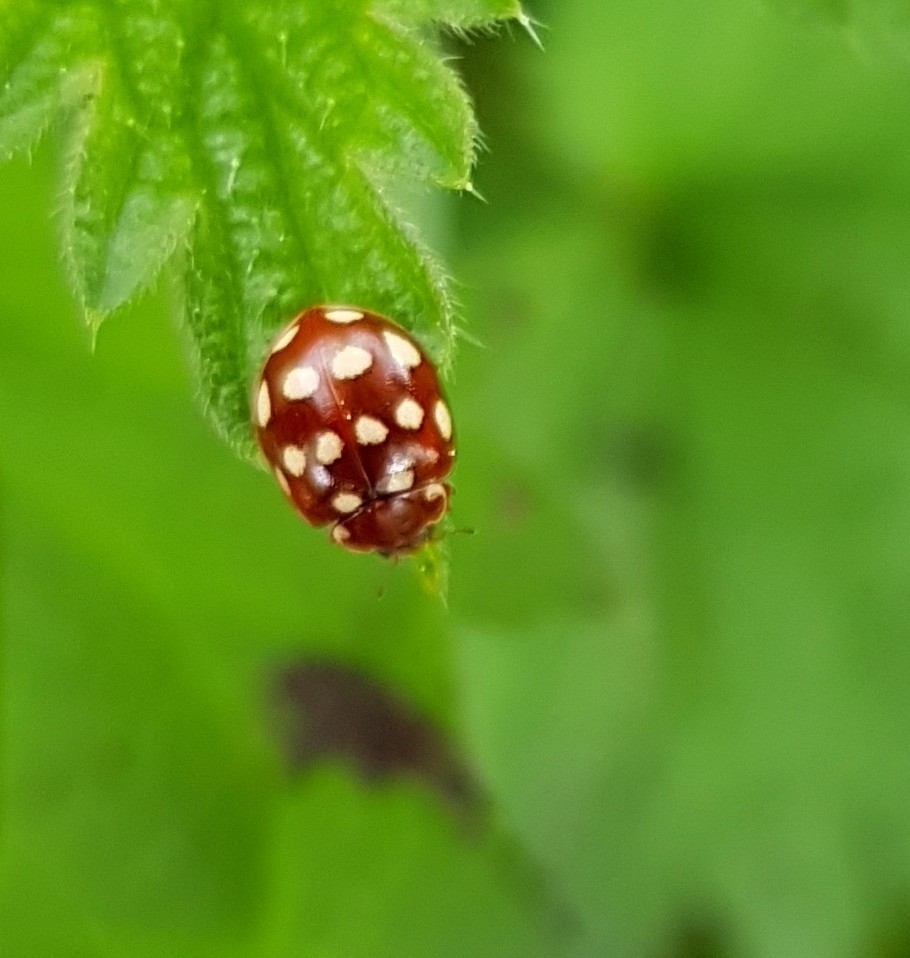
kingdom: Animalia
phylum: Arthropoda
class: Insecta
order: Coleoptera
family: Coccinellidae
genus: Calvia
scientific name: Calvia quatuordecimguttata
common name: Cream-spot ladybird
